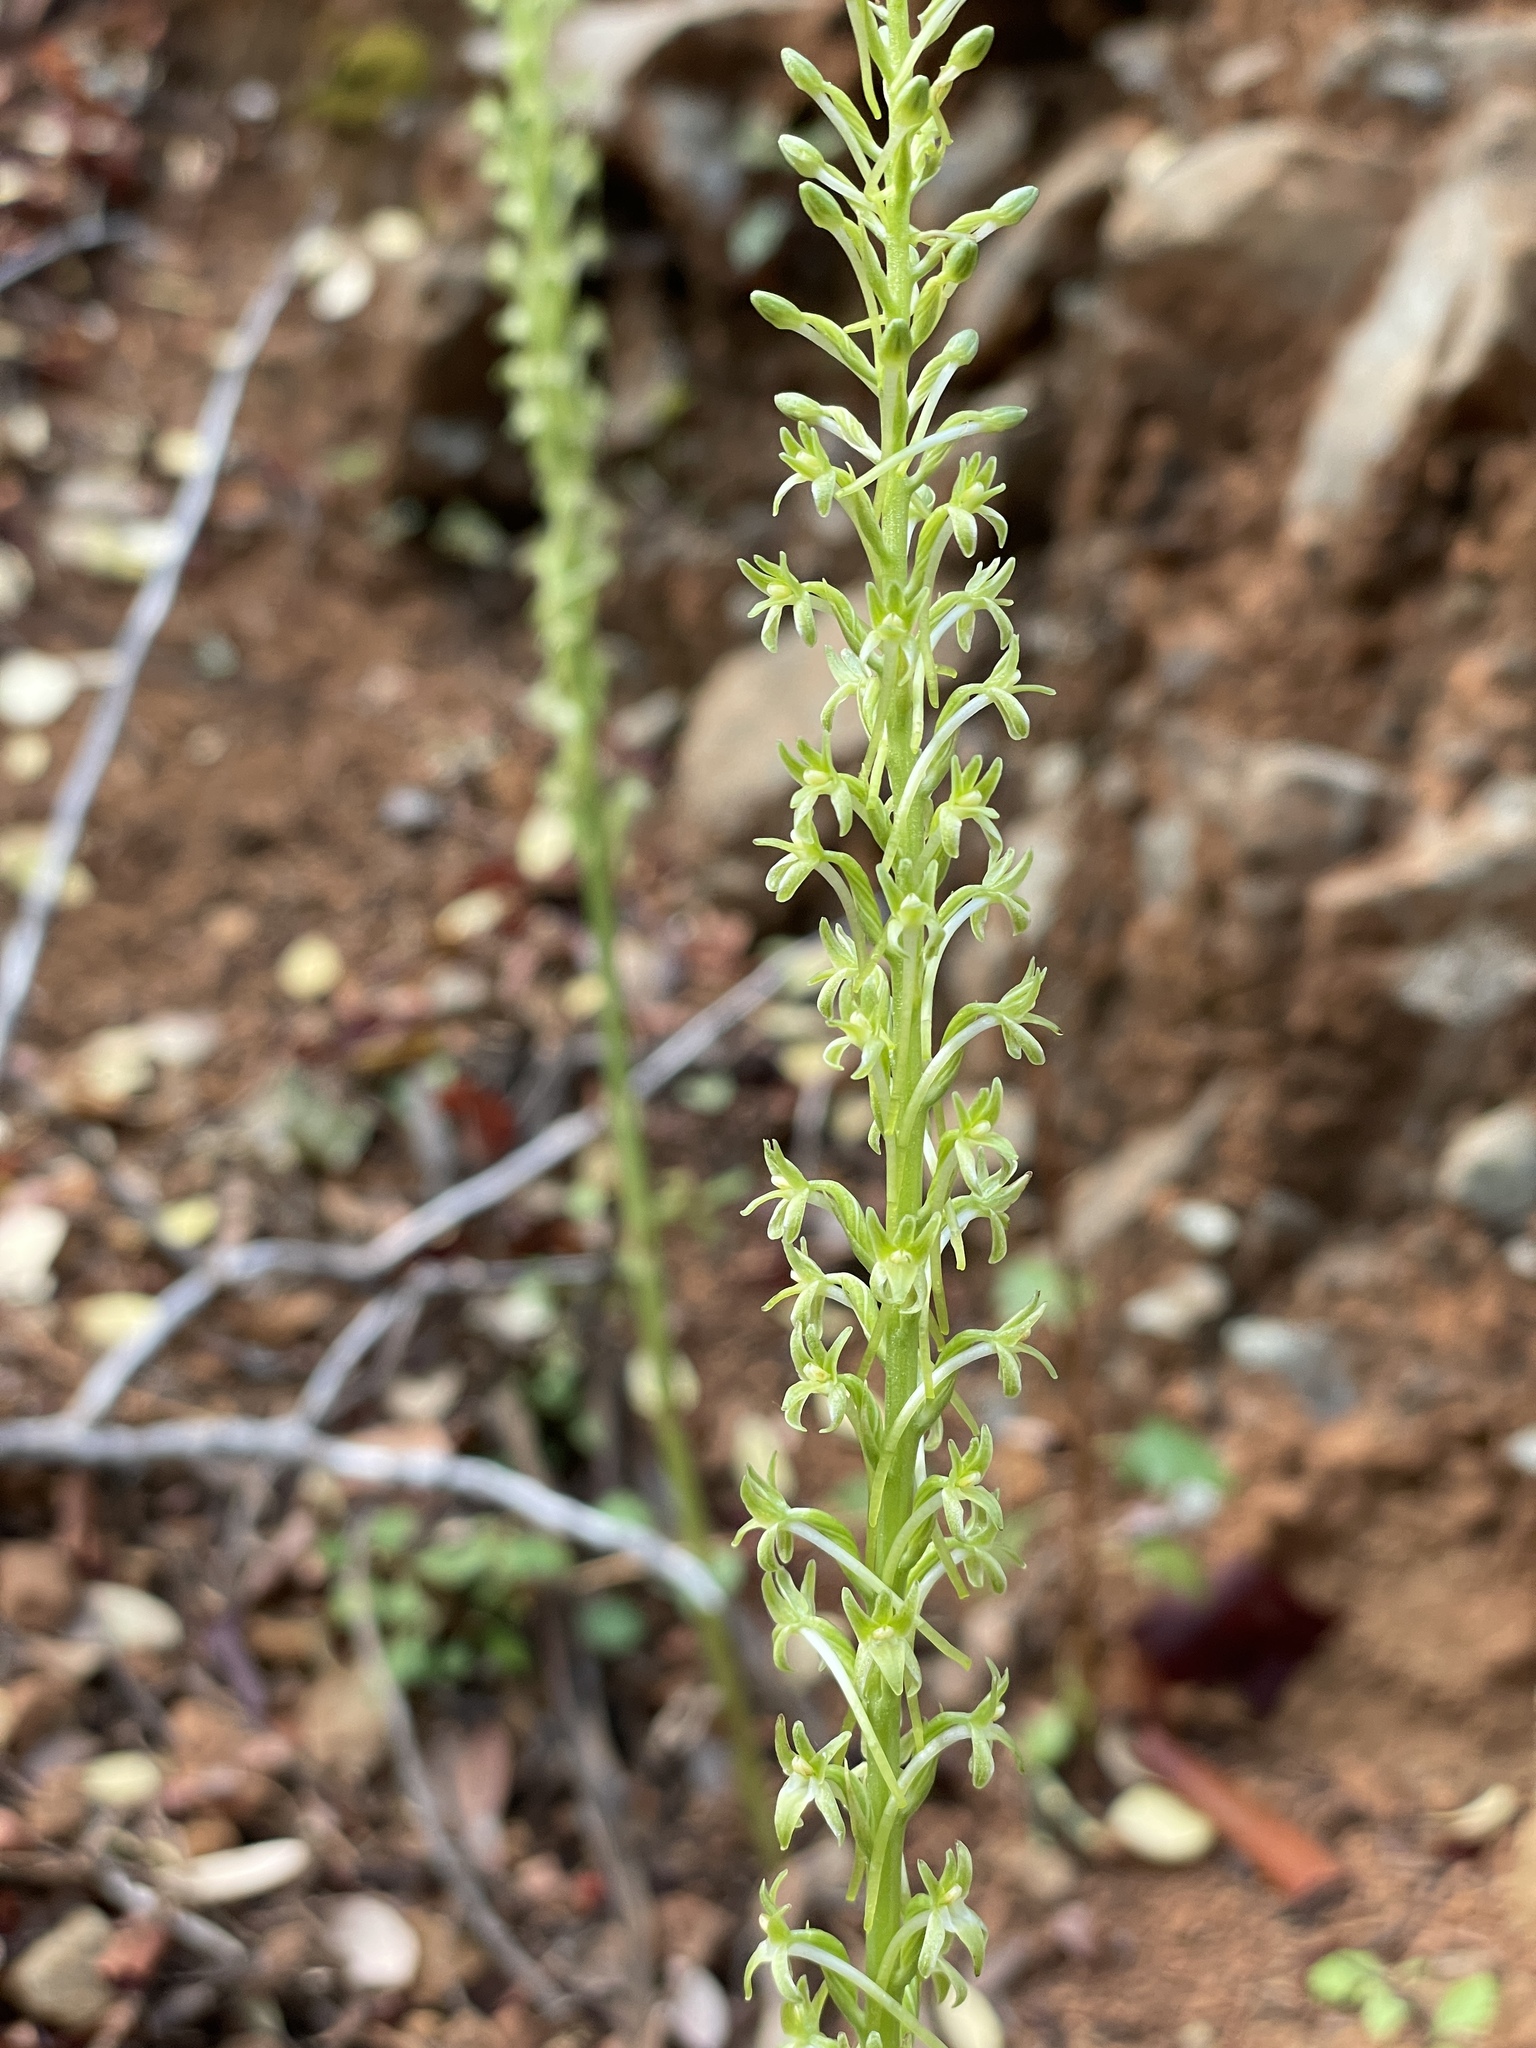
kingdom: Plantae
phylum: Tracheophyta
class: Liliopsida
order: Asparagales
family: Orchidaceae
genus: Platanthera
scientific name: Platanthera elongata
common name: Dense-flowered rein orchid
